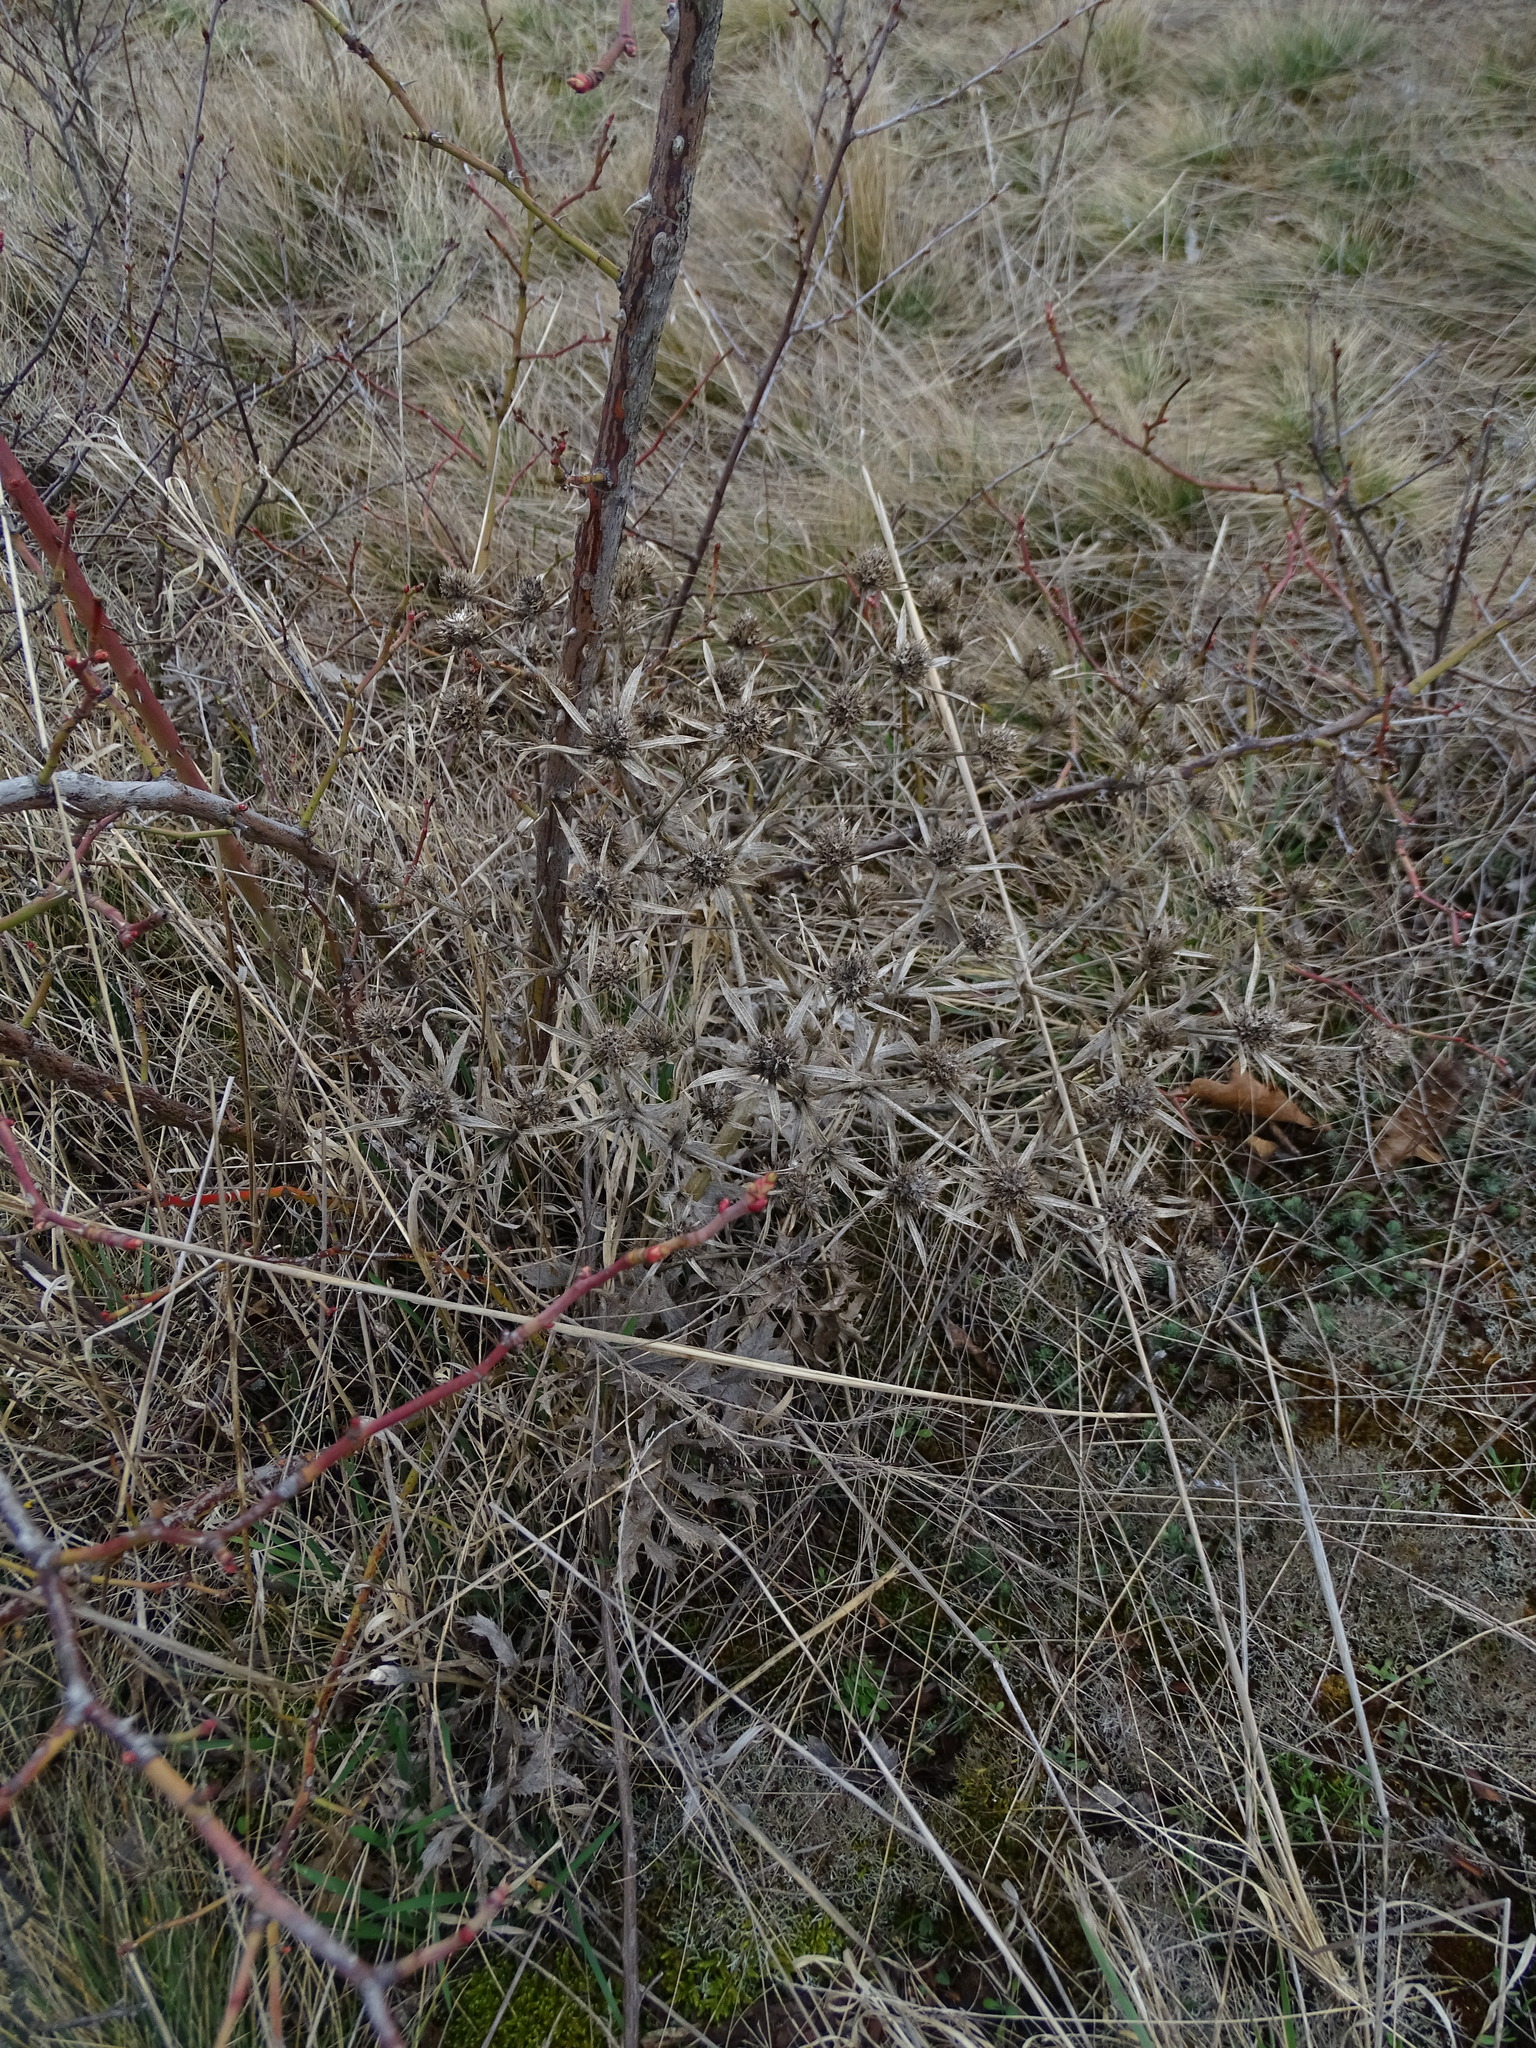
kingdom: Plantae
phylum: Tracheophyta
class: Magnoliopsida
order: Apiales
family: Apiaceae
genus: Eryngium
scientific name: Eryngium campestre
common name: Field eryngo
